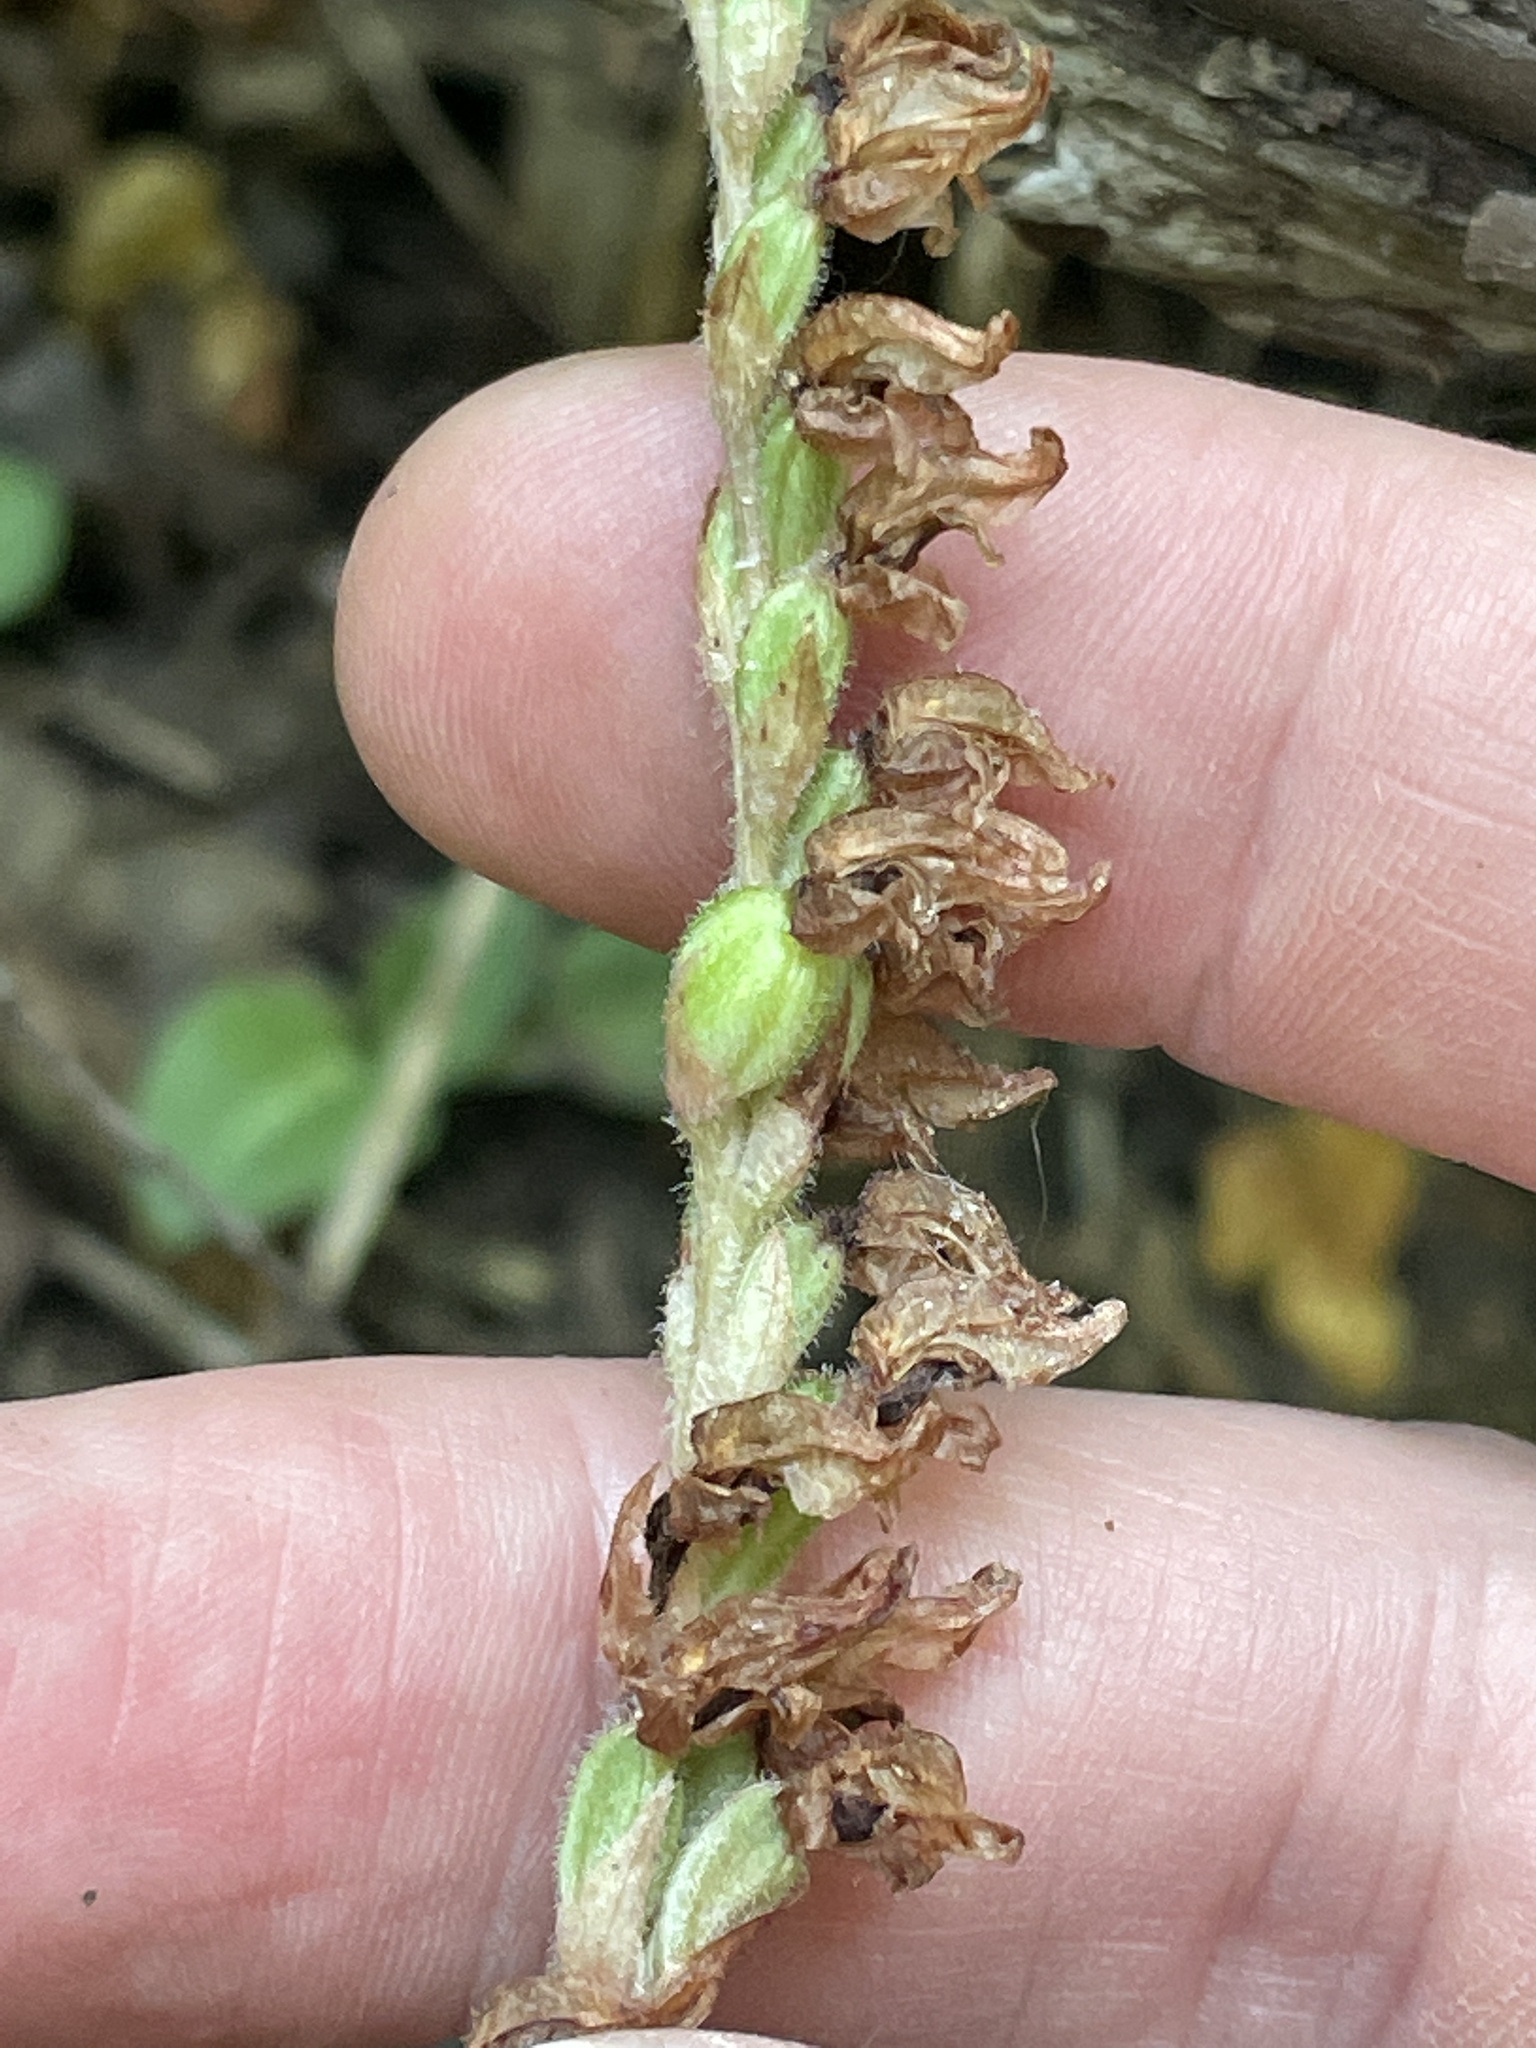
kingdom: Plantae
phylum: Tracheophyta
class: Liliopsida
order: Asparagales
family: Orchidaceae
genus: Goodyera
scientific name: Goodyera oblongifolia
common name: Giant rattlesnake-plantain
